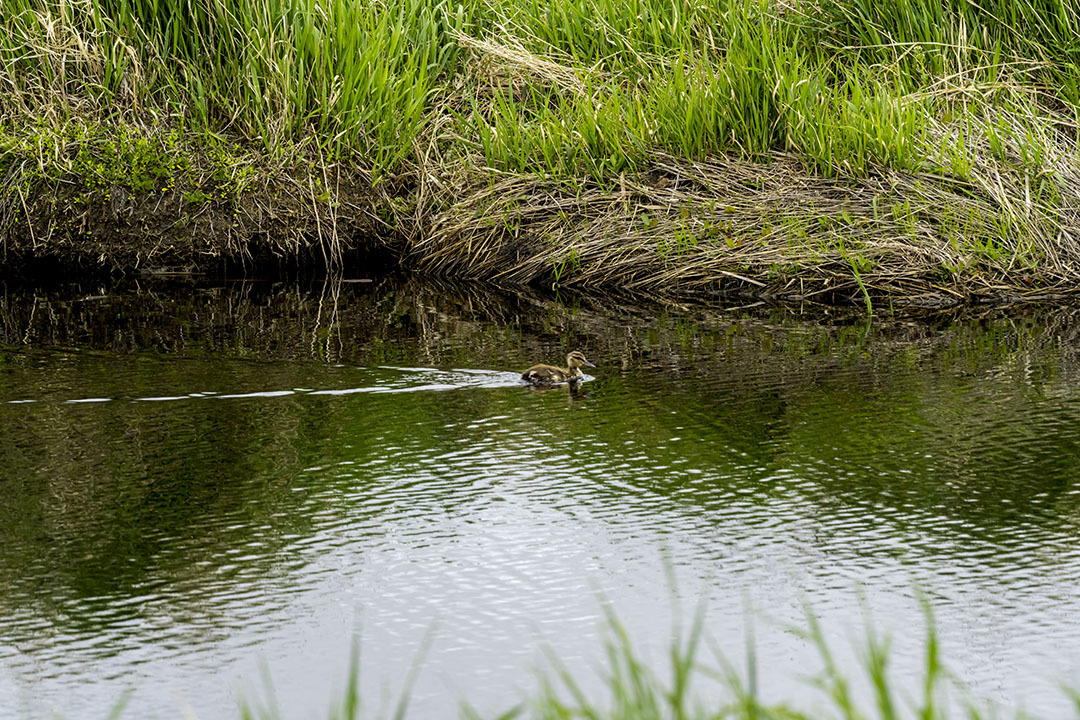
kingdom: Animalia
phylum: Chordata
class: Aves
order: Anseriformes
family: Anatidae
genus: Anas
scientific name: Anas platyrhynchos
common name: Mallard
